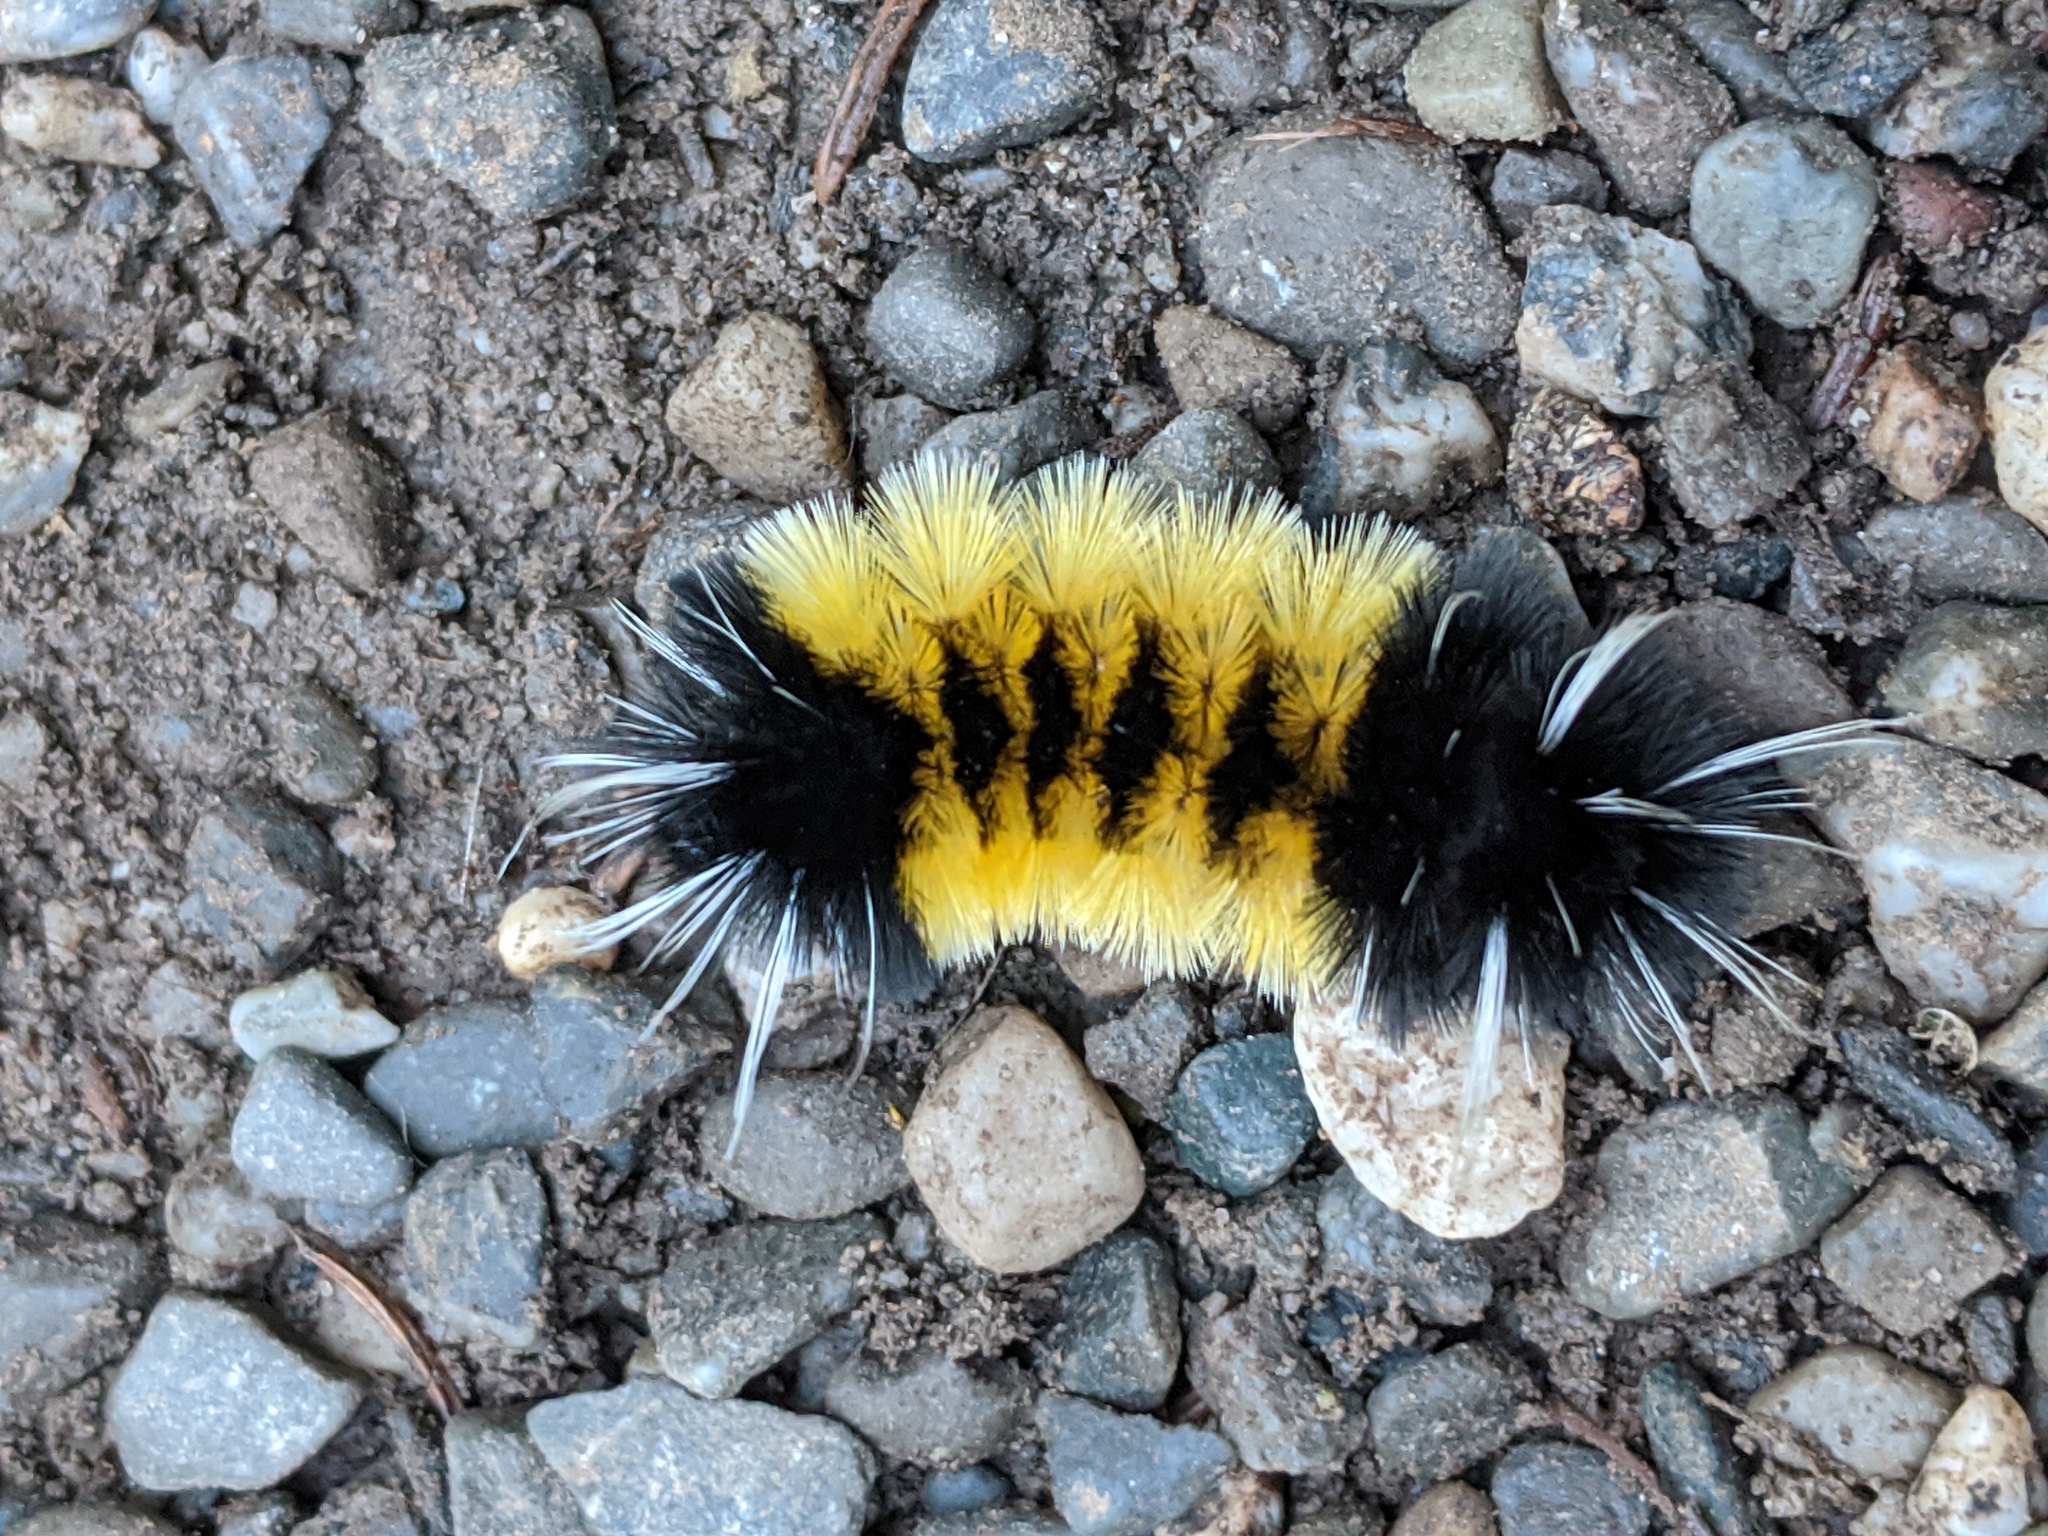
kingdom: Animalia
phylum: Arthropoda
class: Insecta
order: Lepidoptera
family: Erebidae
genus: Lophocampa
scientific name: Lophocampa maculata
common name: Spotted tussock moth
